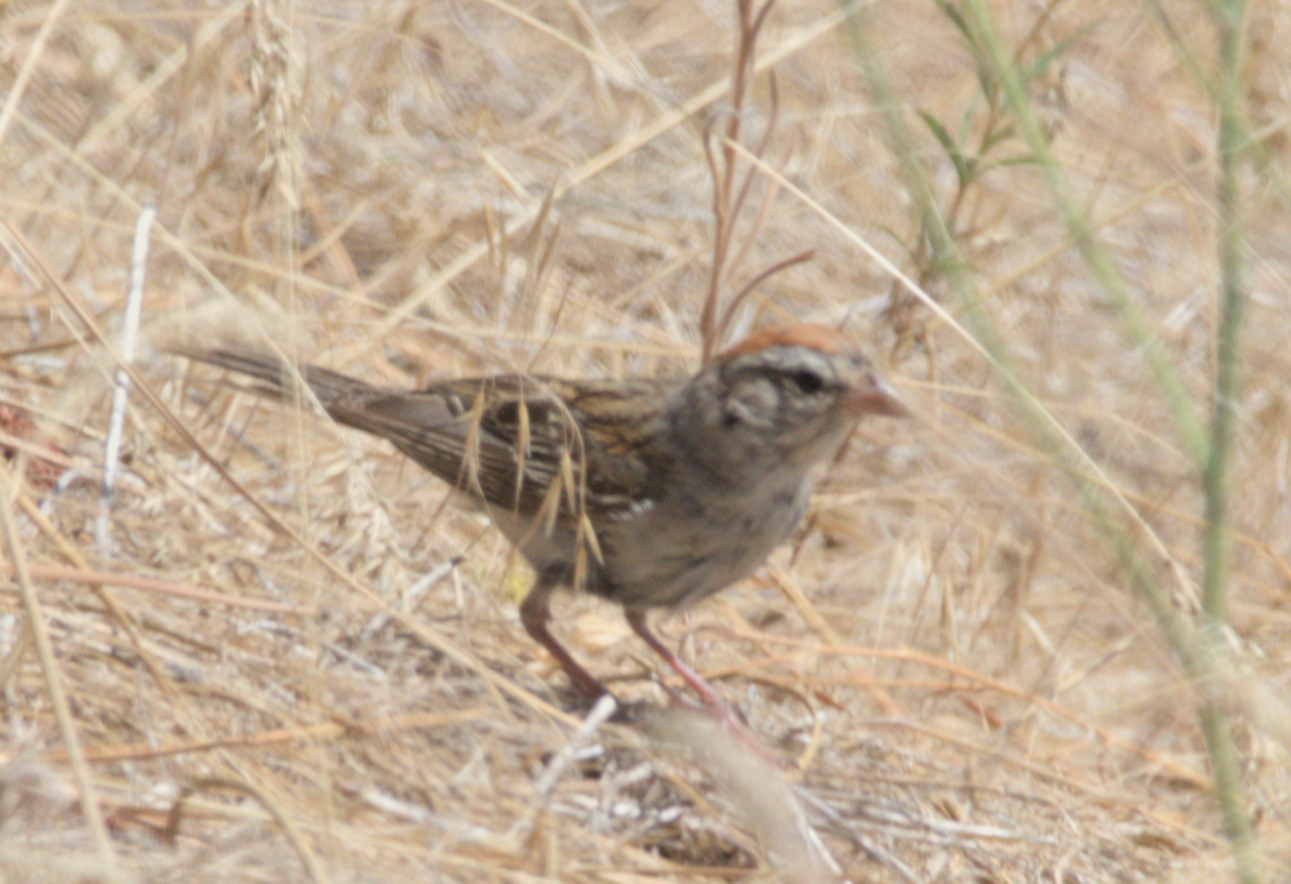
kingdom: Animalia
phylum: Chordata
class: Aves
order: Passeriformes
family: Passerellidae
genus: Spizella
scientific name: Spizella passerina
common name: Chipping sparrow
